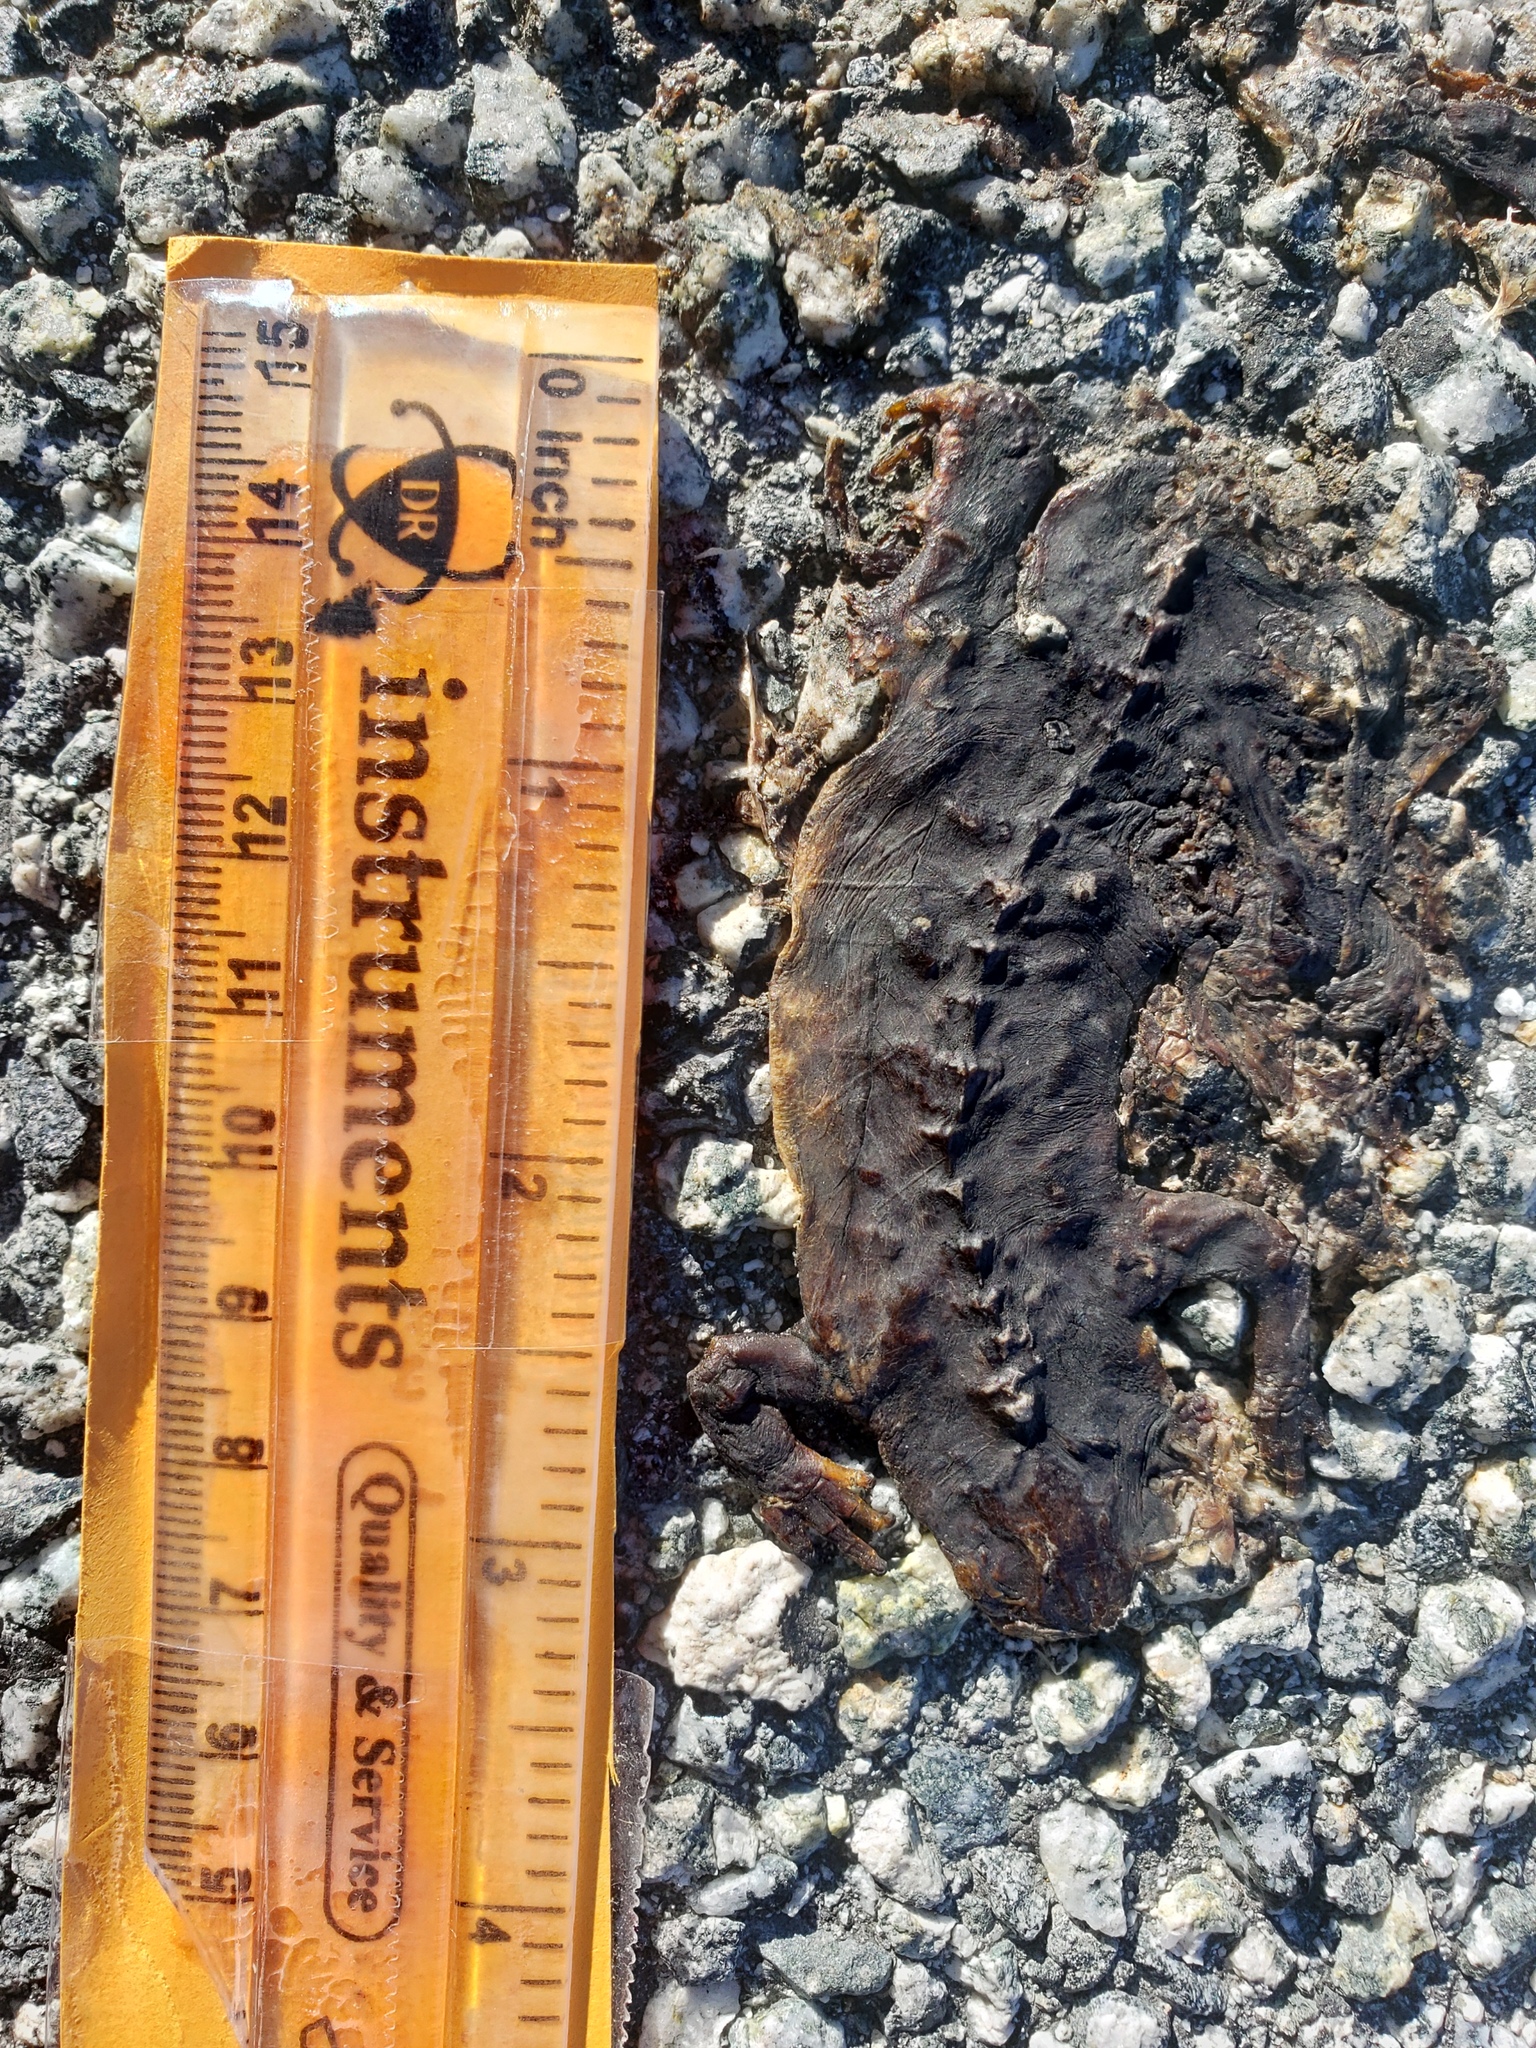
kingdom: Animalia
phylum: Chordata
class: Amphibia
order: Caudata
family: Salamandridae
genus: Taricha
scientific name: Taricha
